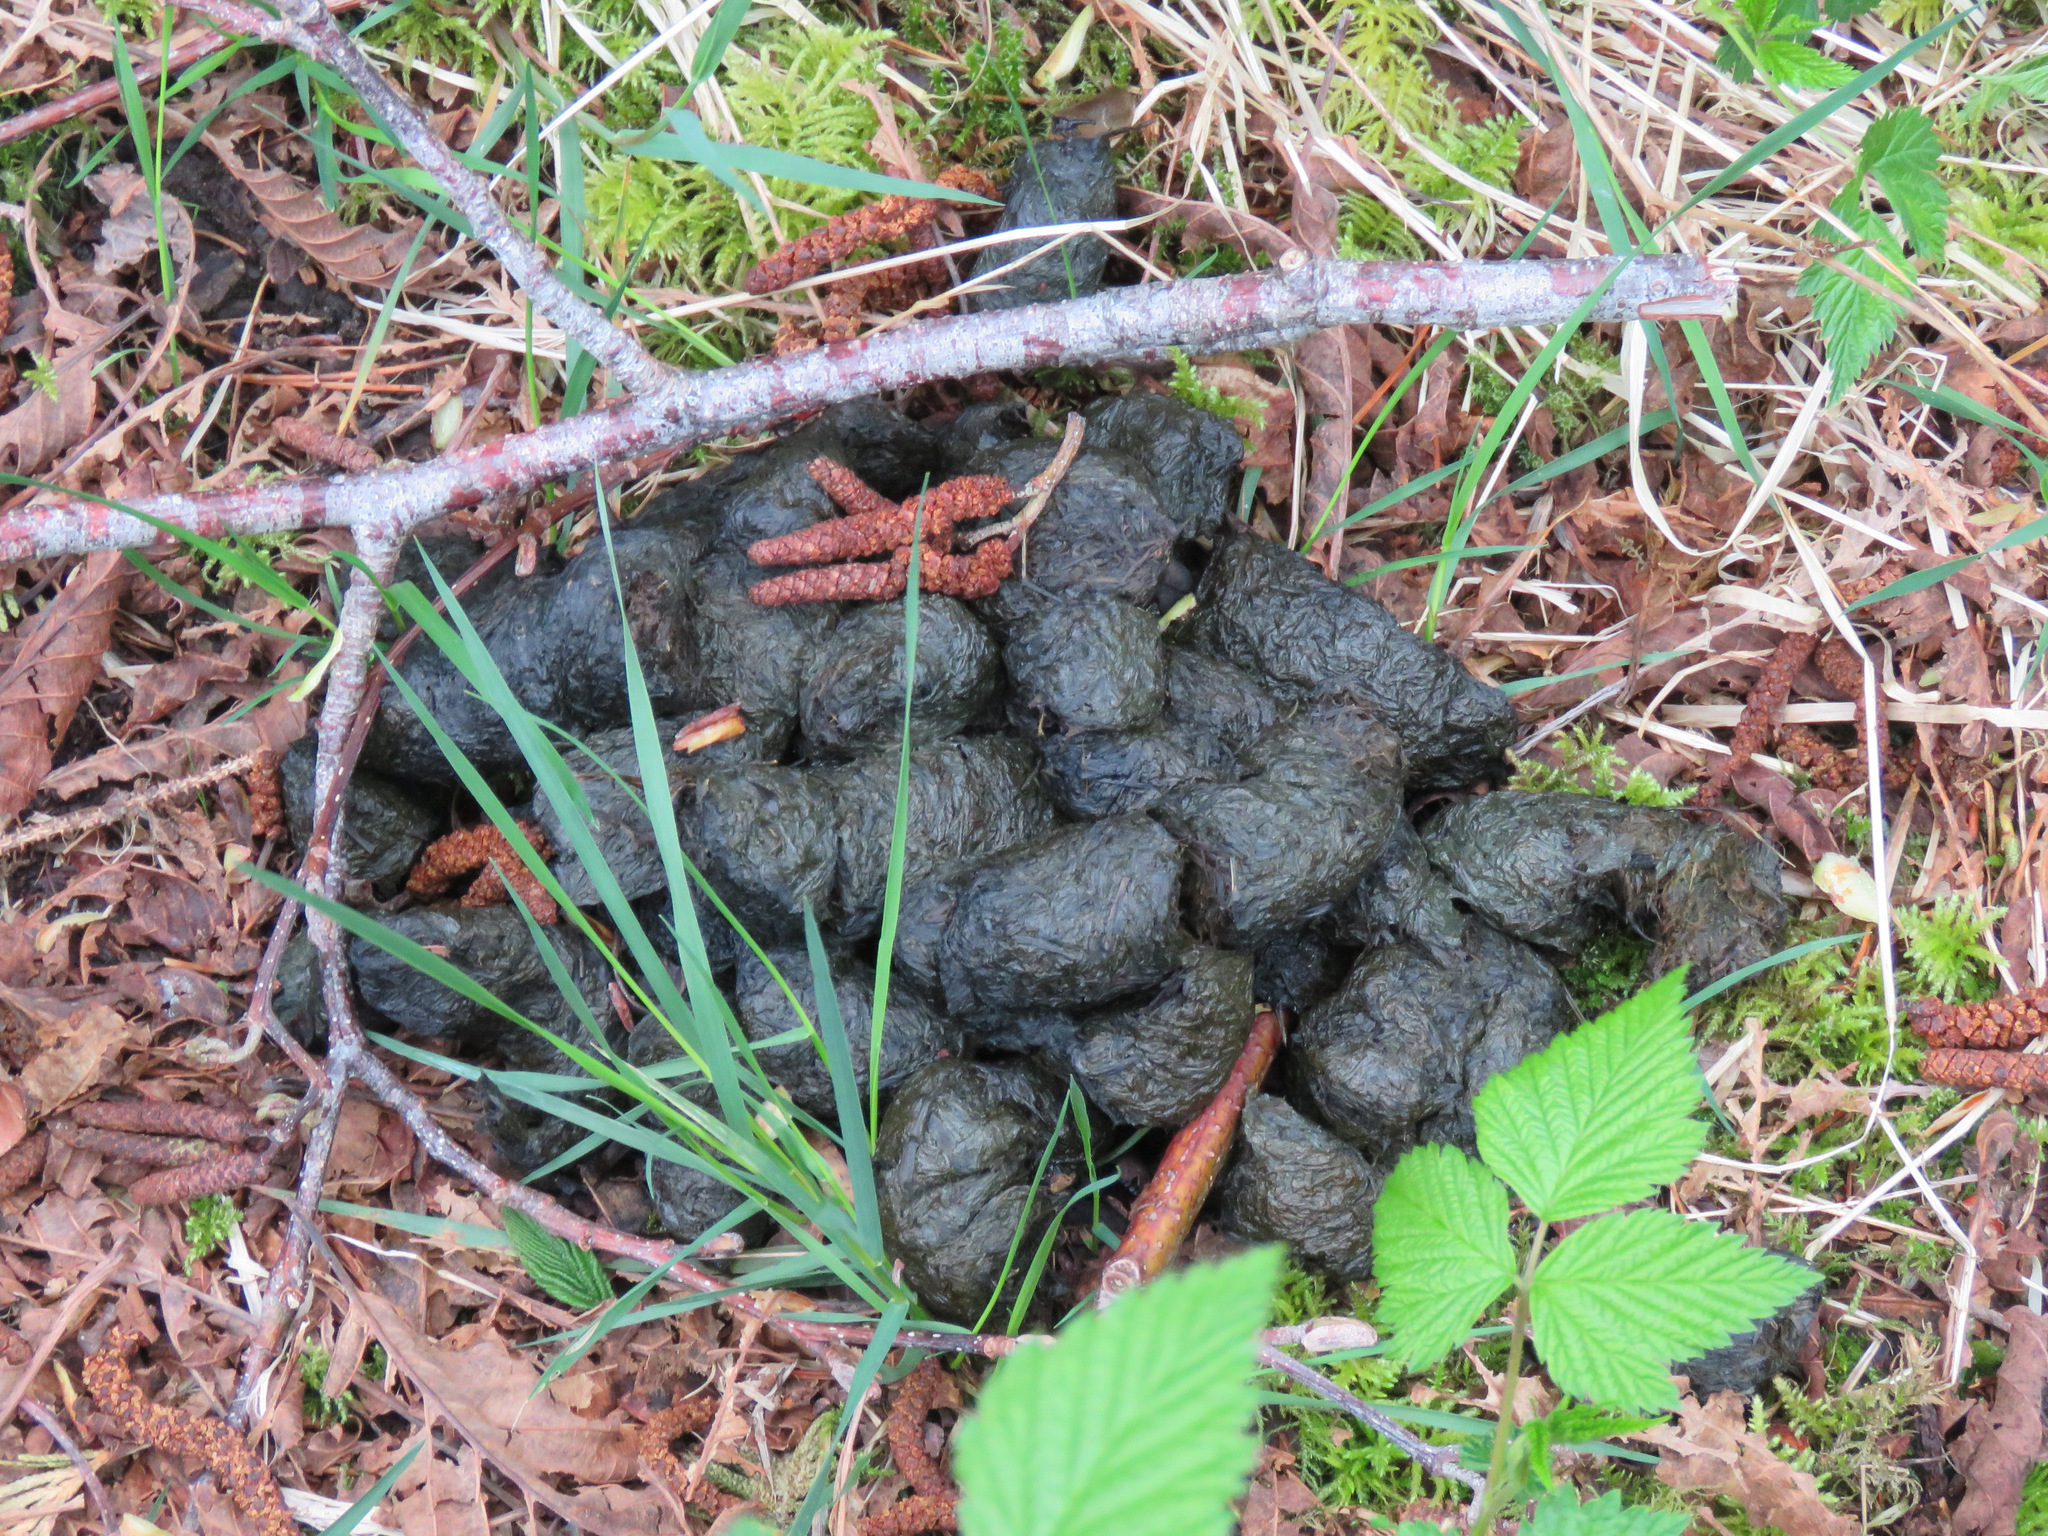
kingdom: Animalia
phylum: Chordata
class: Mammalia
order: Carnivora
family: Ursidae
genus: Ursus
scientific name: Ursus americanus
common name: American black bear
